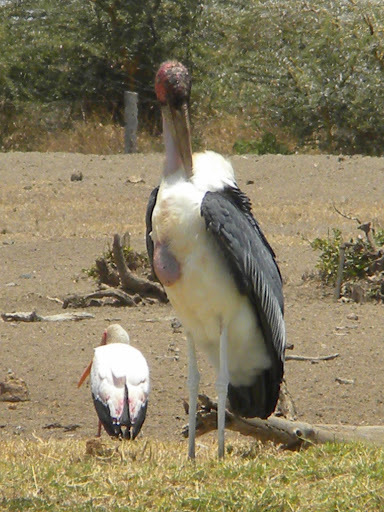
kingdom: Animalia
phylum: Chordata
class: Aves
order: Ciconiiformes
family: Ciconiidae
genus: Leptoptilos
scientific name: Leptoptilos crumenifer
